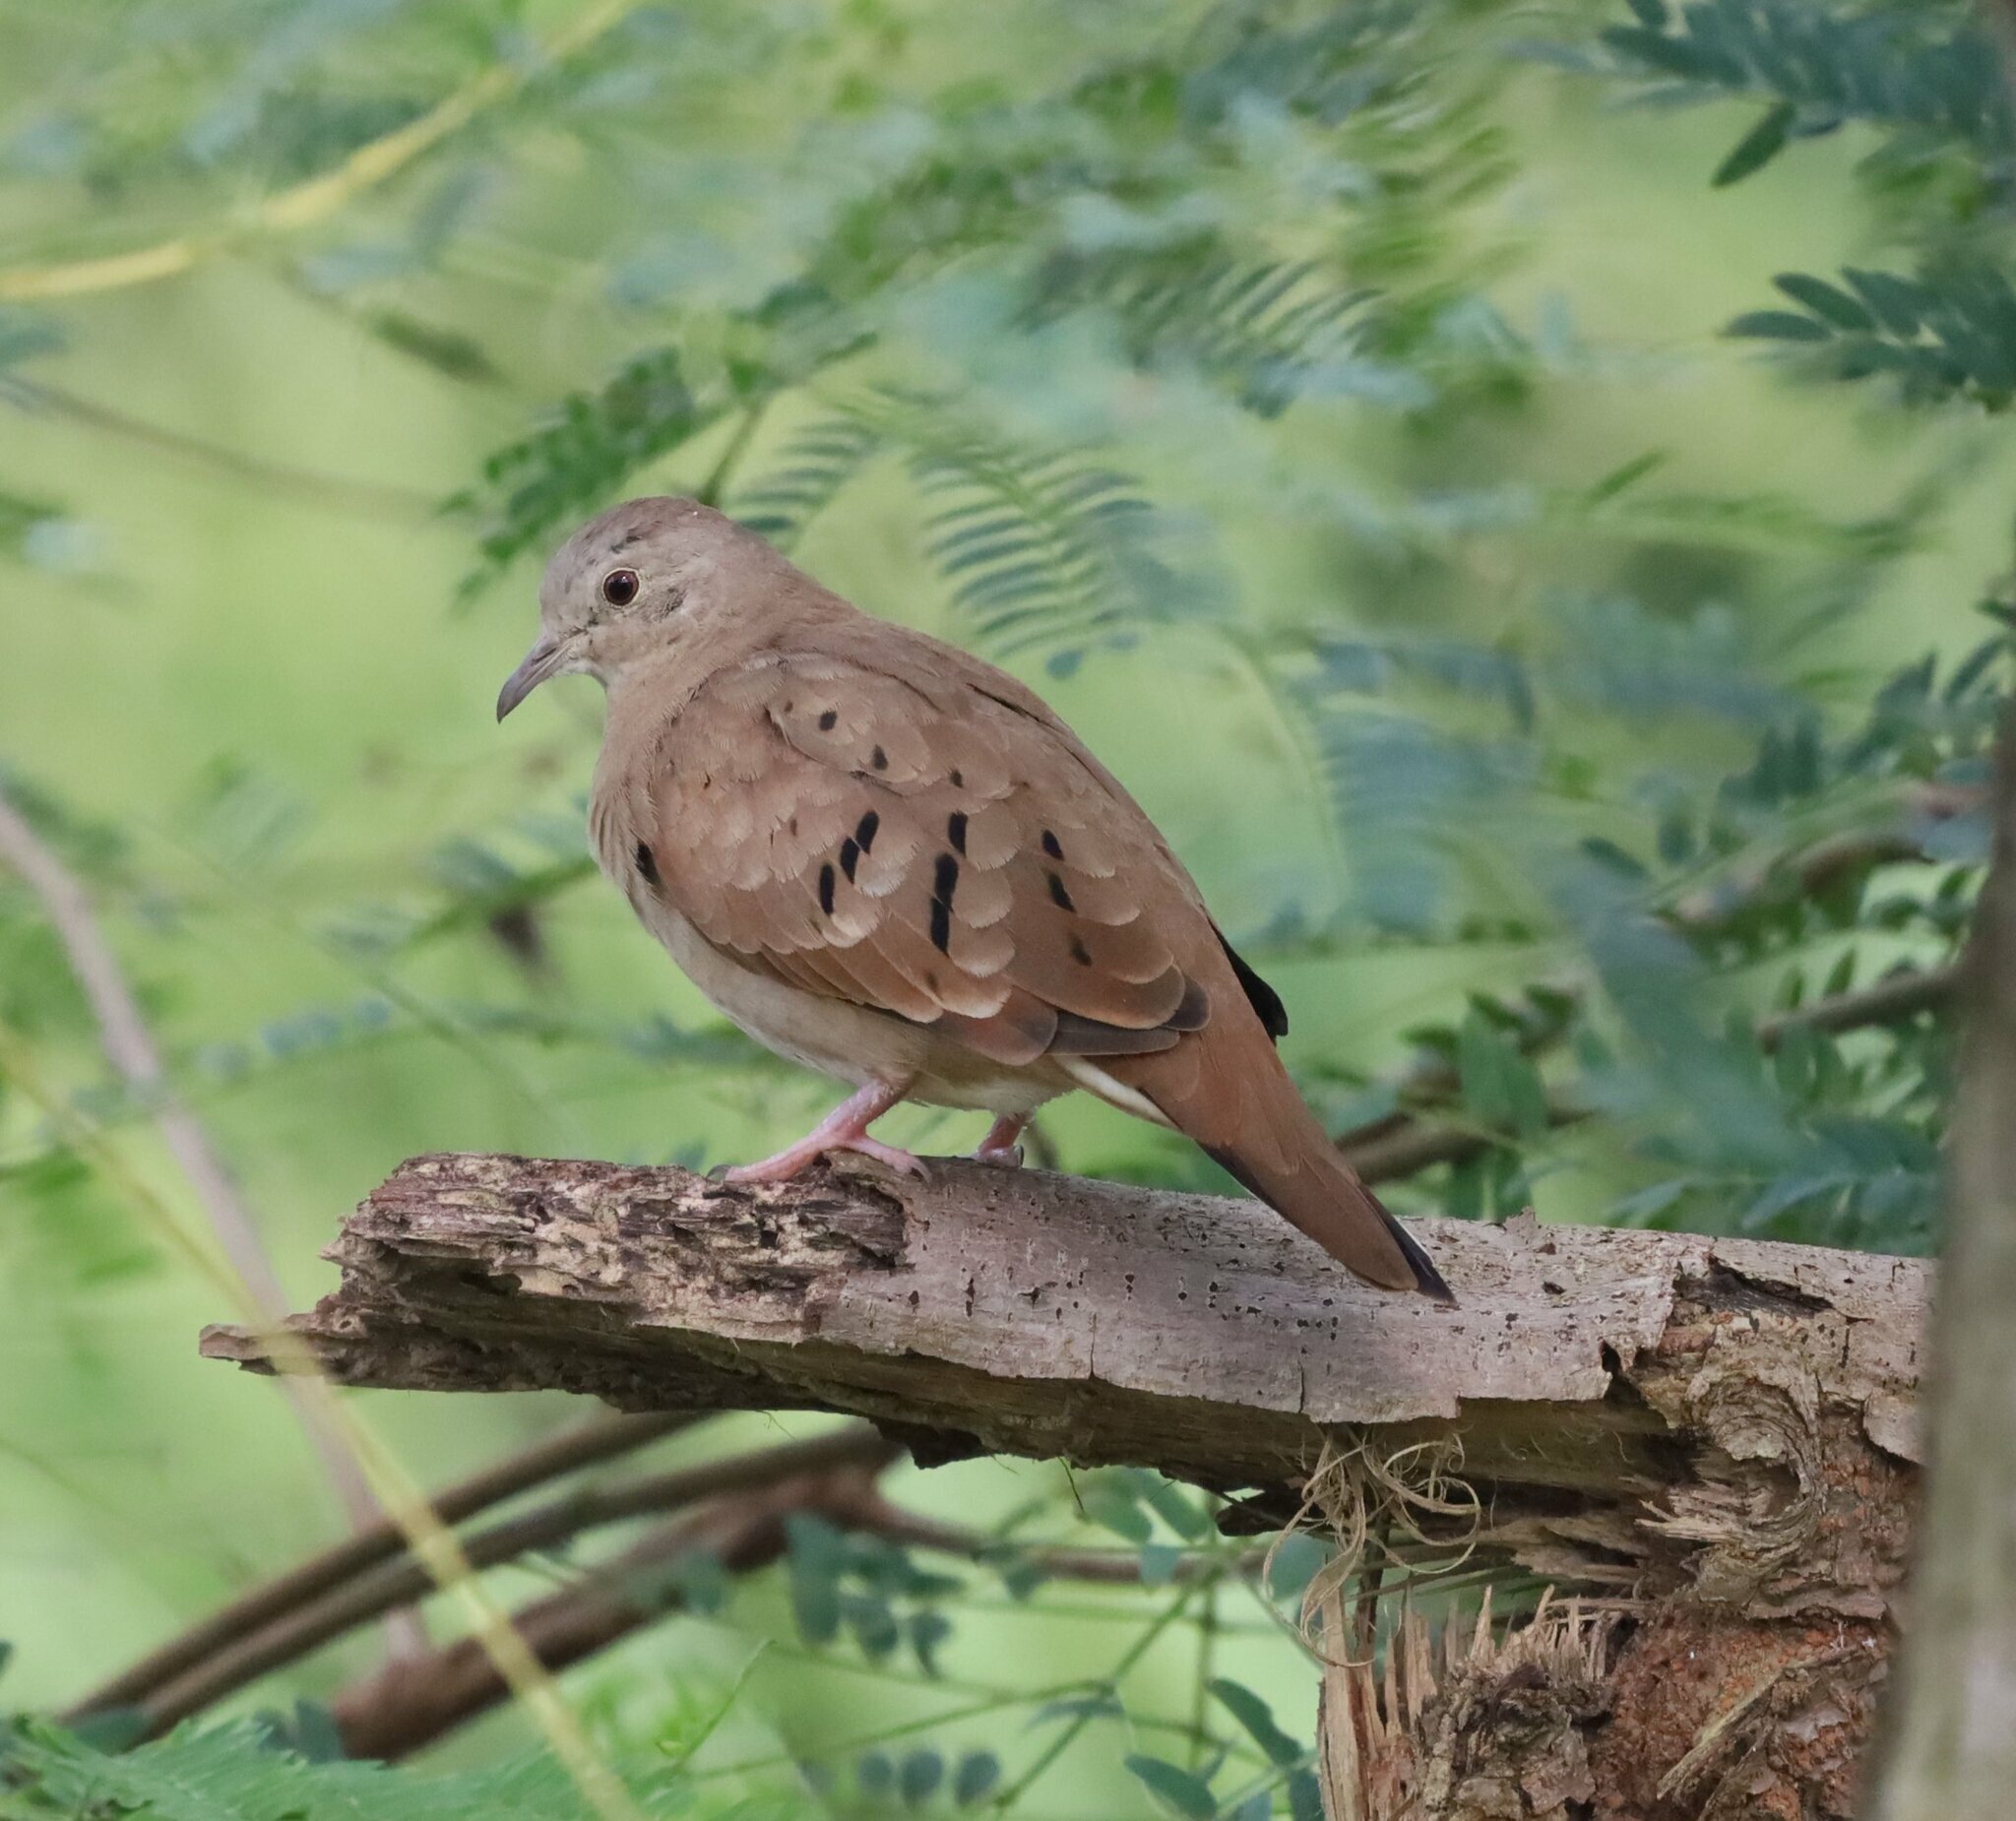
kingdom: Animalia
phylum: Chordata
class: Aves
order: Columbiformes
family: Columbidae
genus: Columbina
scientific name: Columbina talpacoti
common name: Ruddy ground dove
